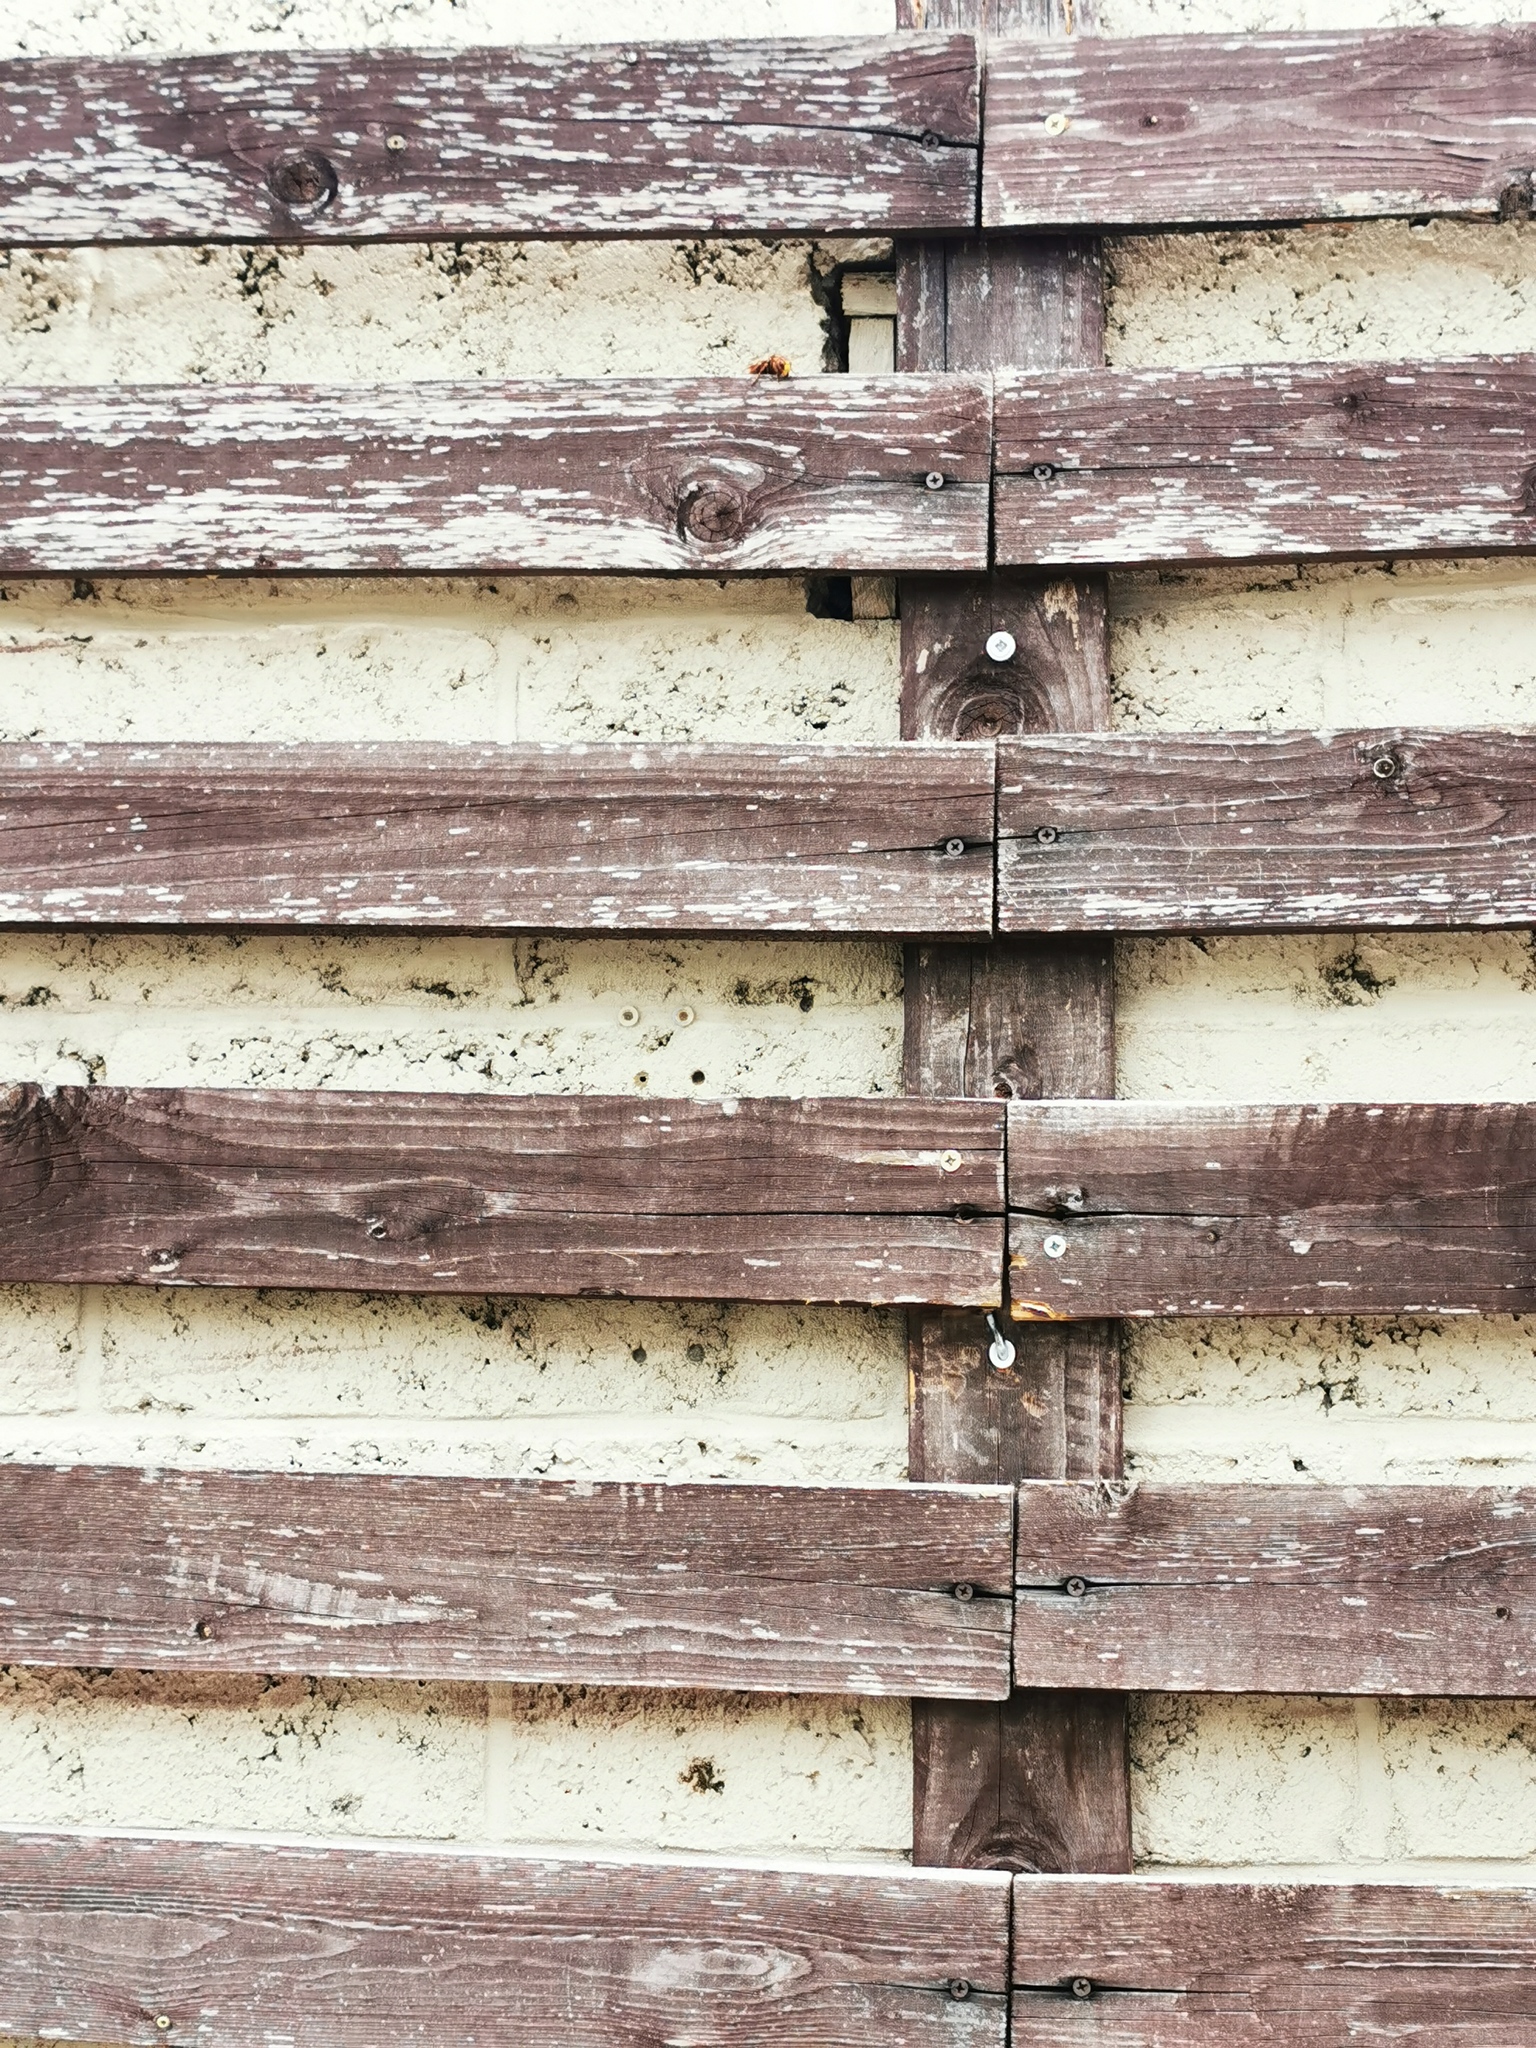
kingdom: Animalia
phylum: Arthropoda
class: Insecta
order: Hymenoptera
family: Vespidae
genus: Vespa
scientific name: Vespa crabro
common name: Hornet
